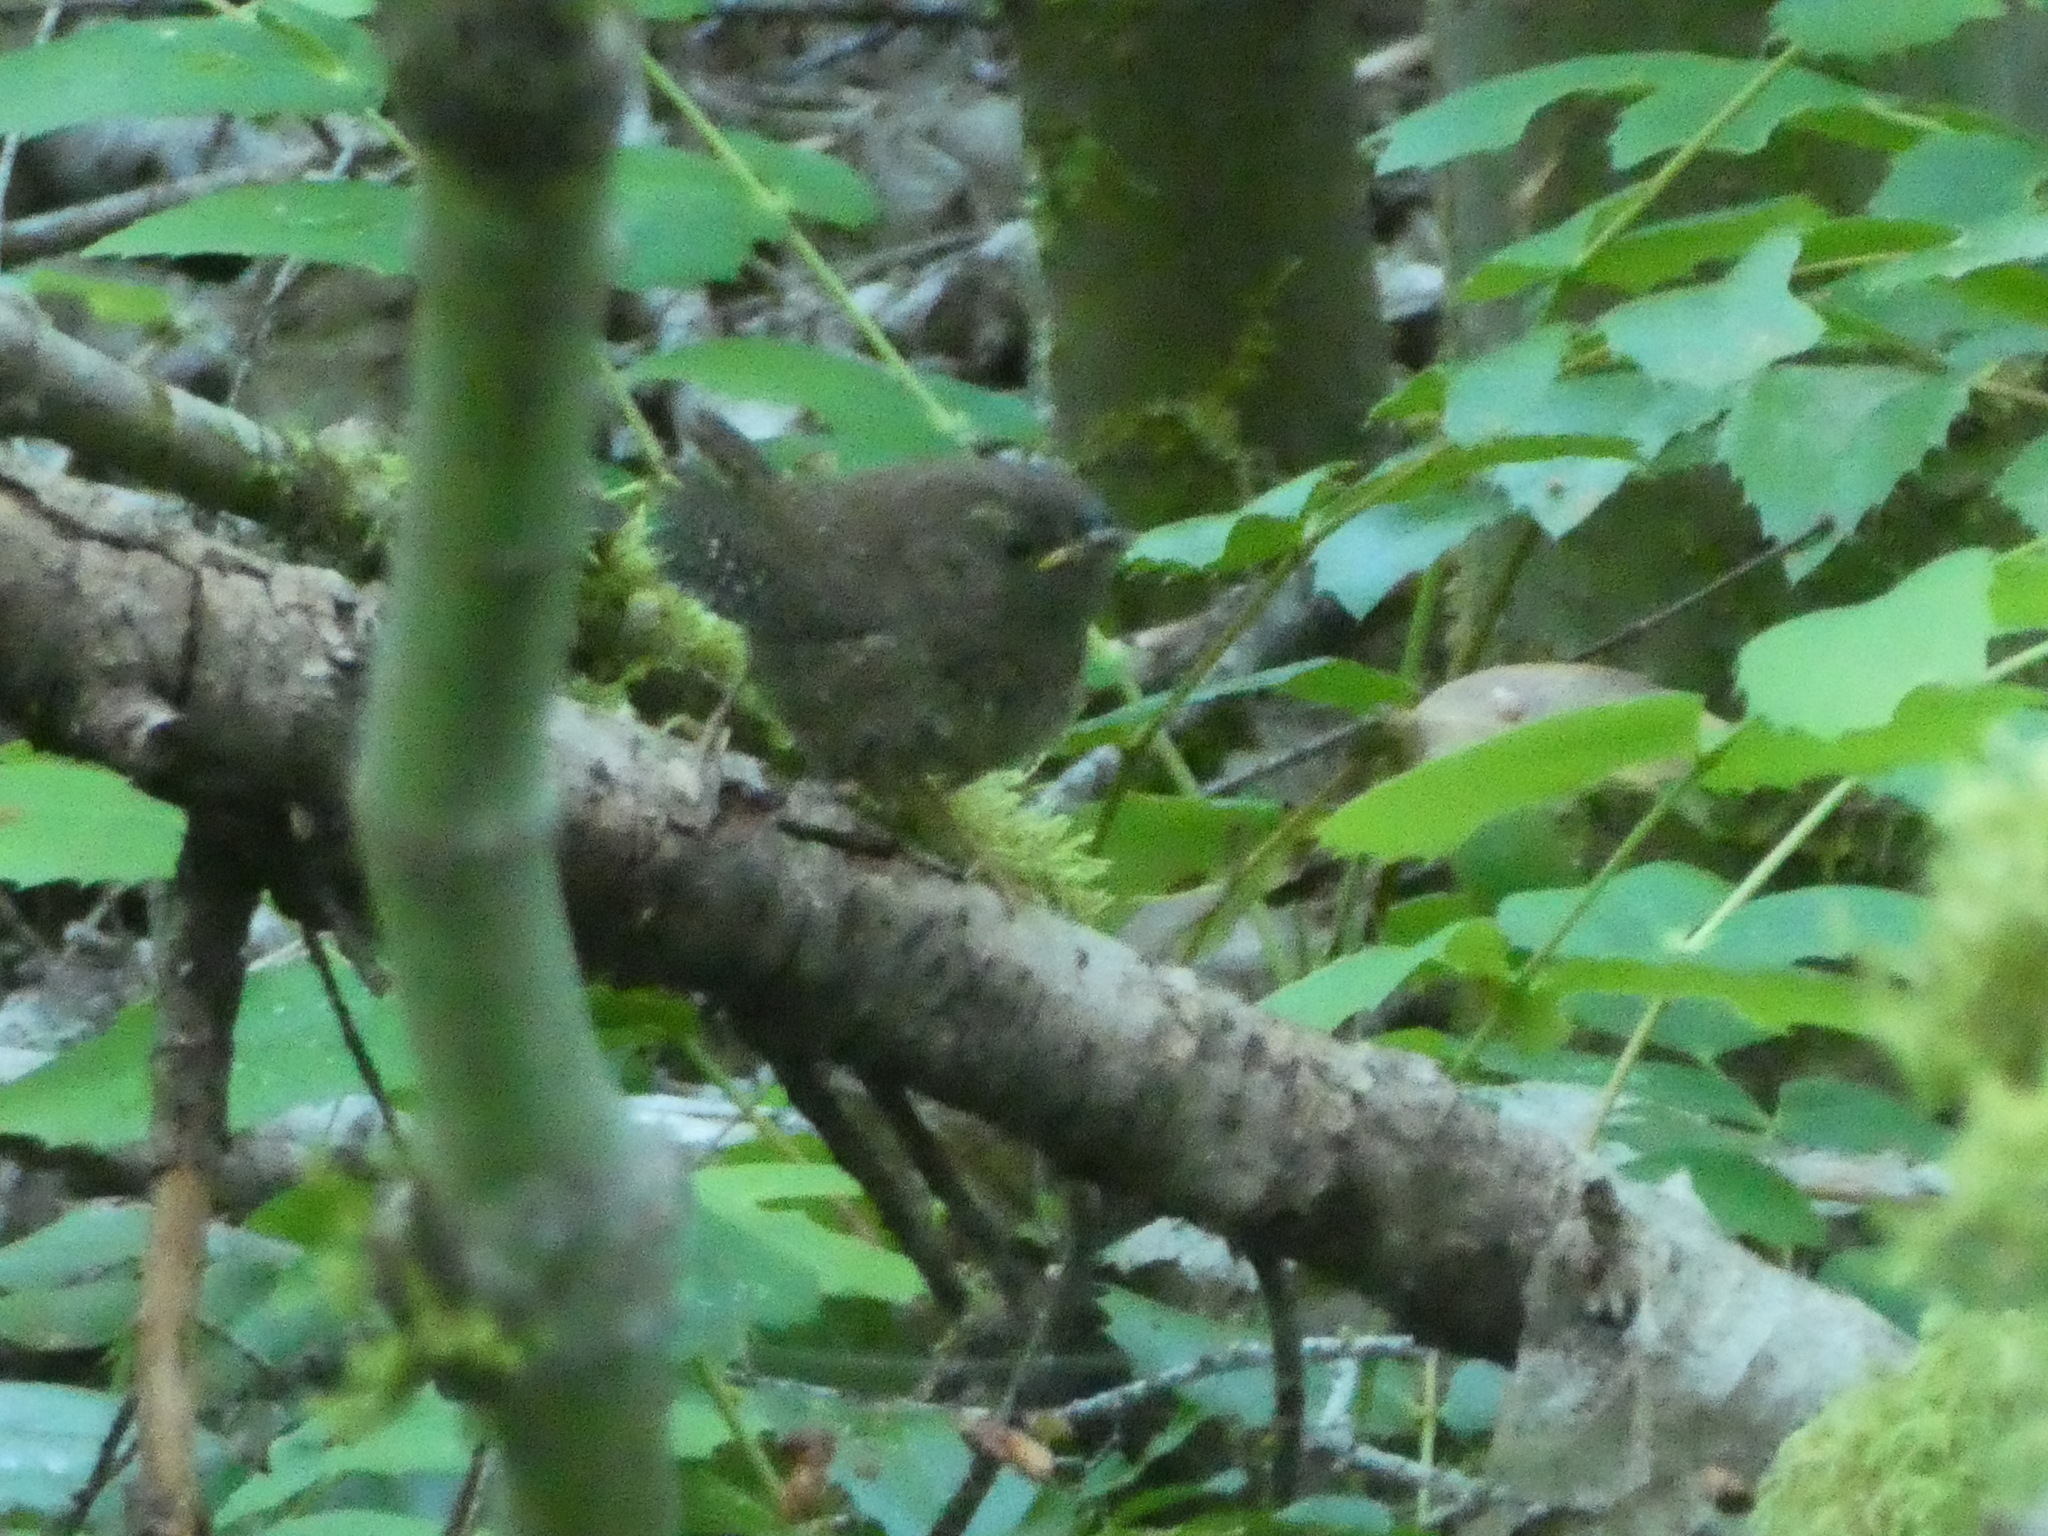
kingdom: Animalia
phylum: Chordata
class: Aves
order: Passeriformes
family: Troglodytidae
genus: Troglodytes
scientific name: Troglodytes pacificus
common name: Pacific wren
